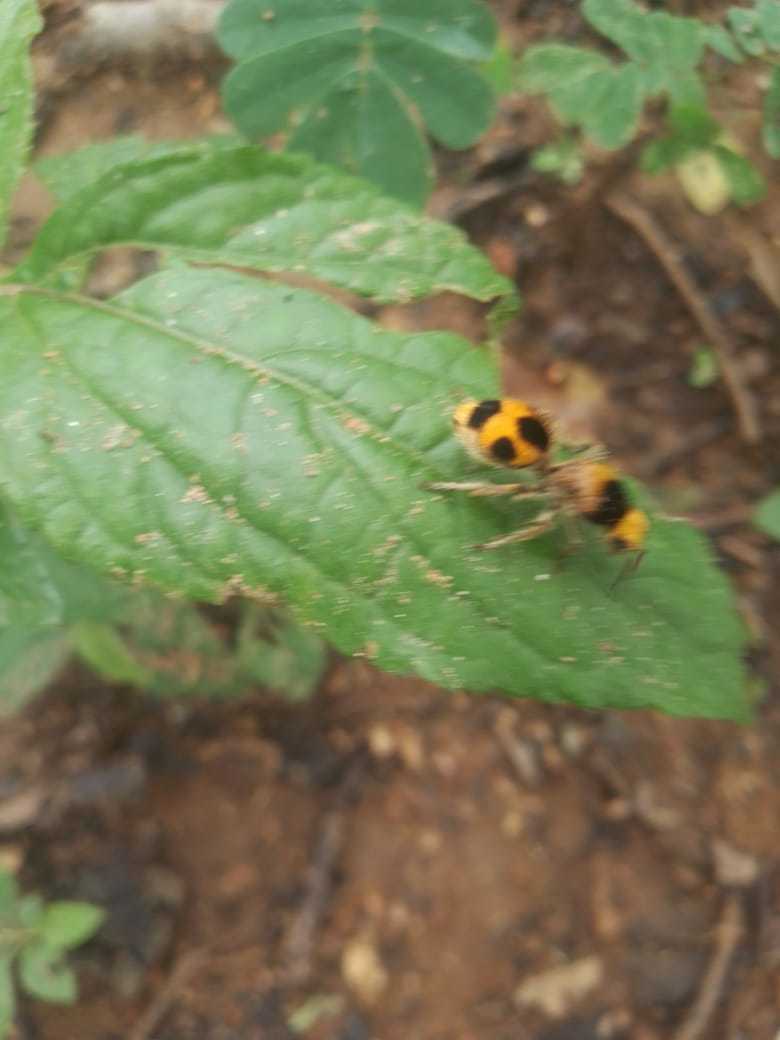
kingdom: Animalia
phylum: Arthropoda
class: Insecta
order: Hymenoptera
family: Mutillidae
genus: Dasymutilla
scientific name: Dasymutilla pulchra
